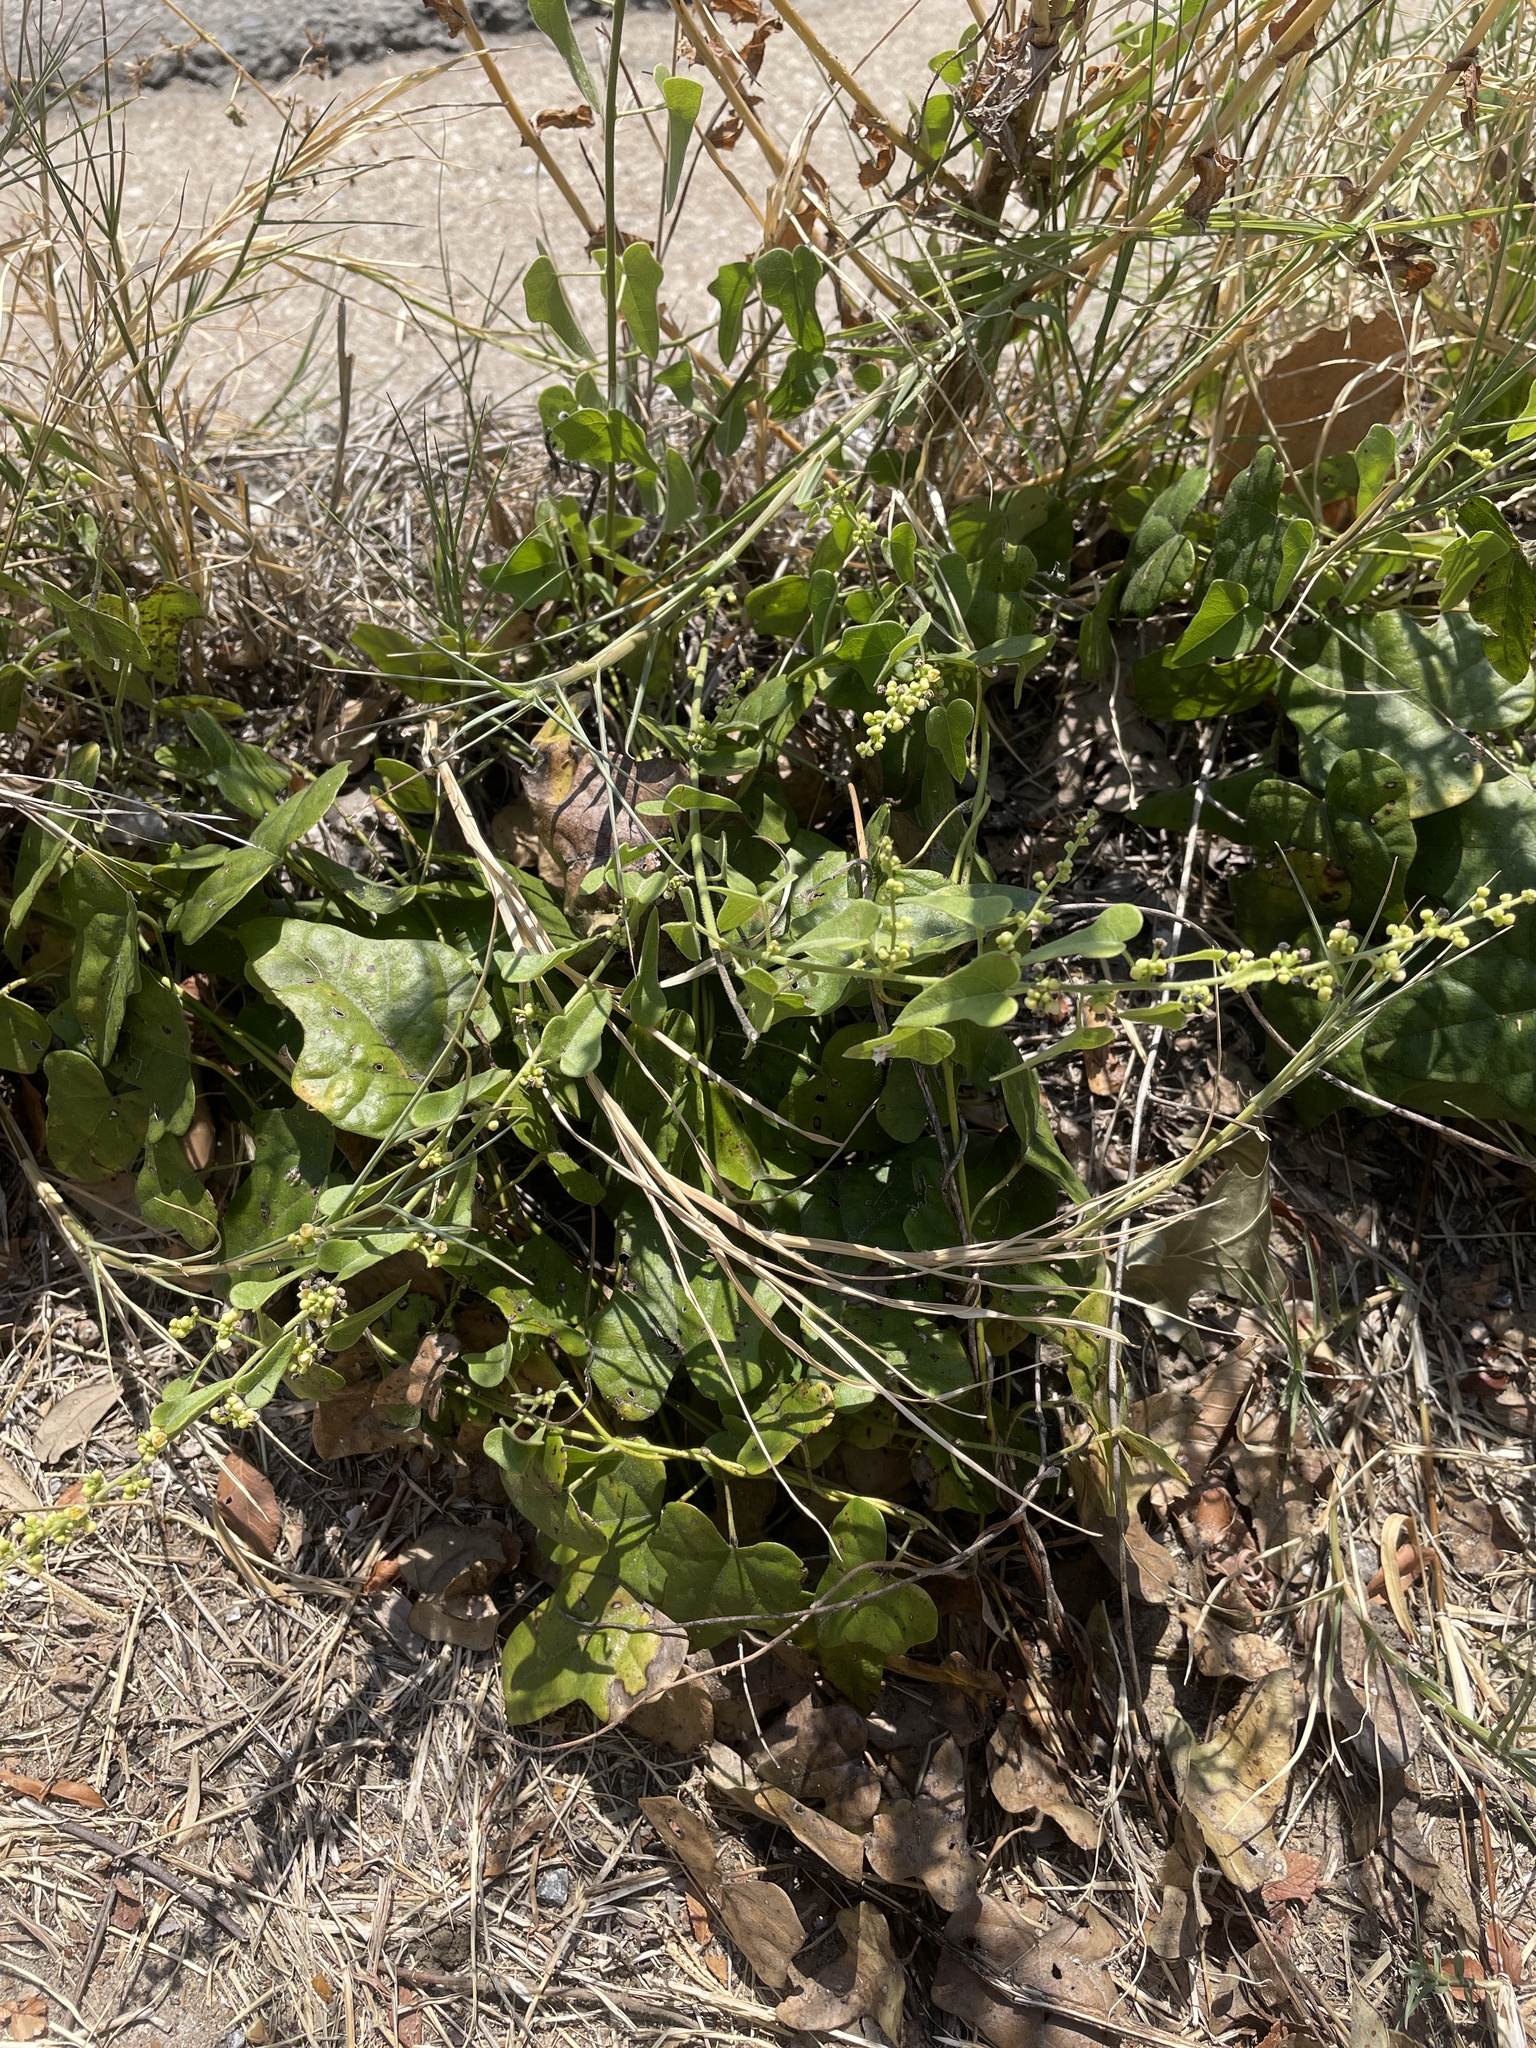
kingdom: Plantae
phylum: Tracheophyta
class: Magnoliopsida
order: Ranunculales
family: Menispermaceae
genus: Cocculus
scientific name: Cocculus carolinus
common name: Carolina moonseed
